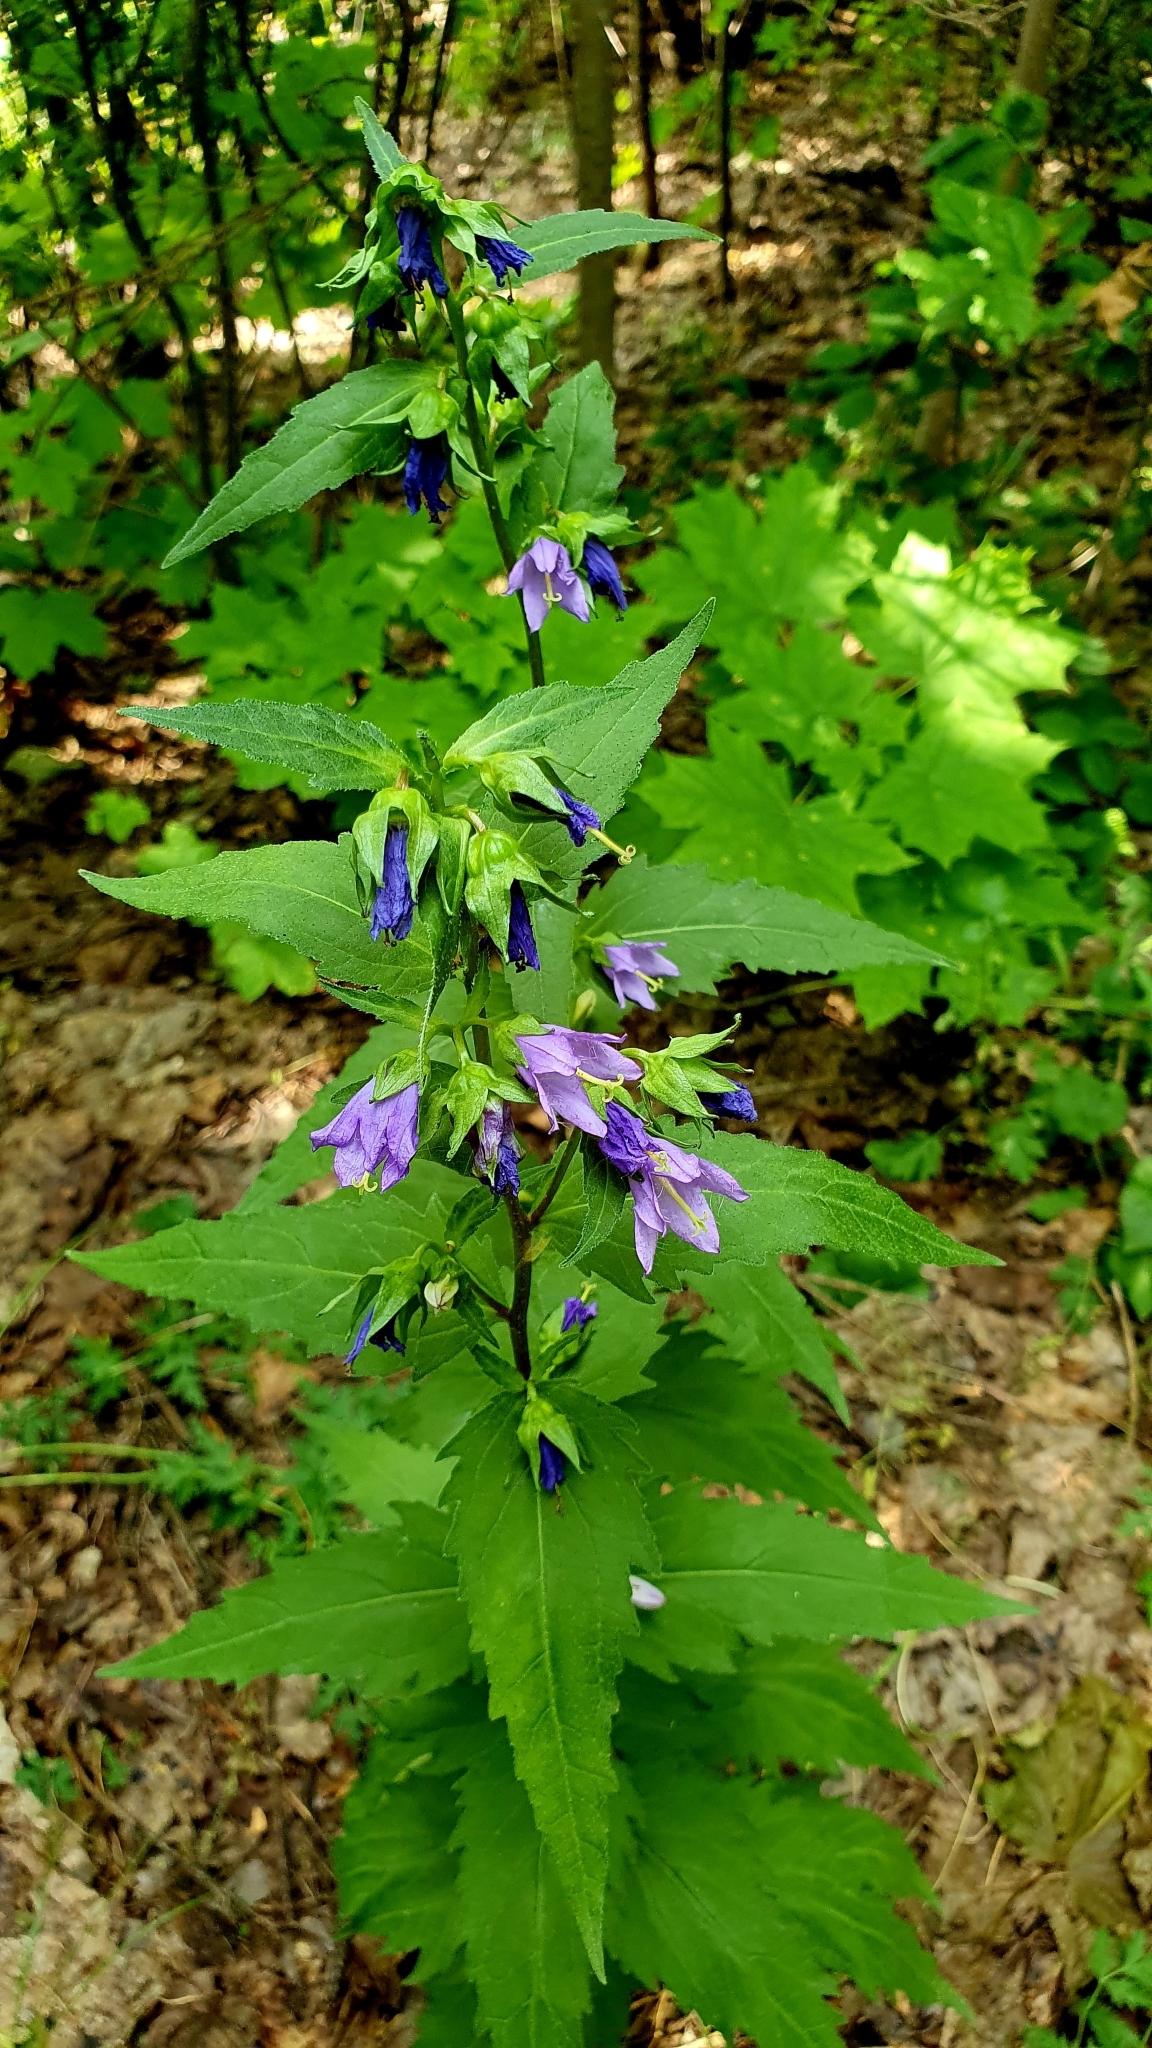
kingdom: Plantae
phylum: Tracheophyta
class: Magnoliopsida
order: Asterales
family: Campanulaceae
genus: Campanula
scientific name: Campanula trachelium
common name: Nettle-leaved bellflower
